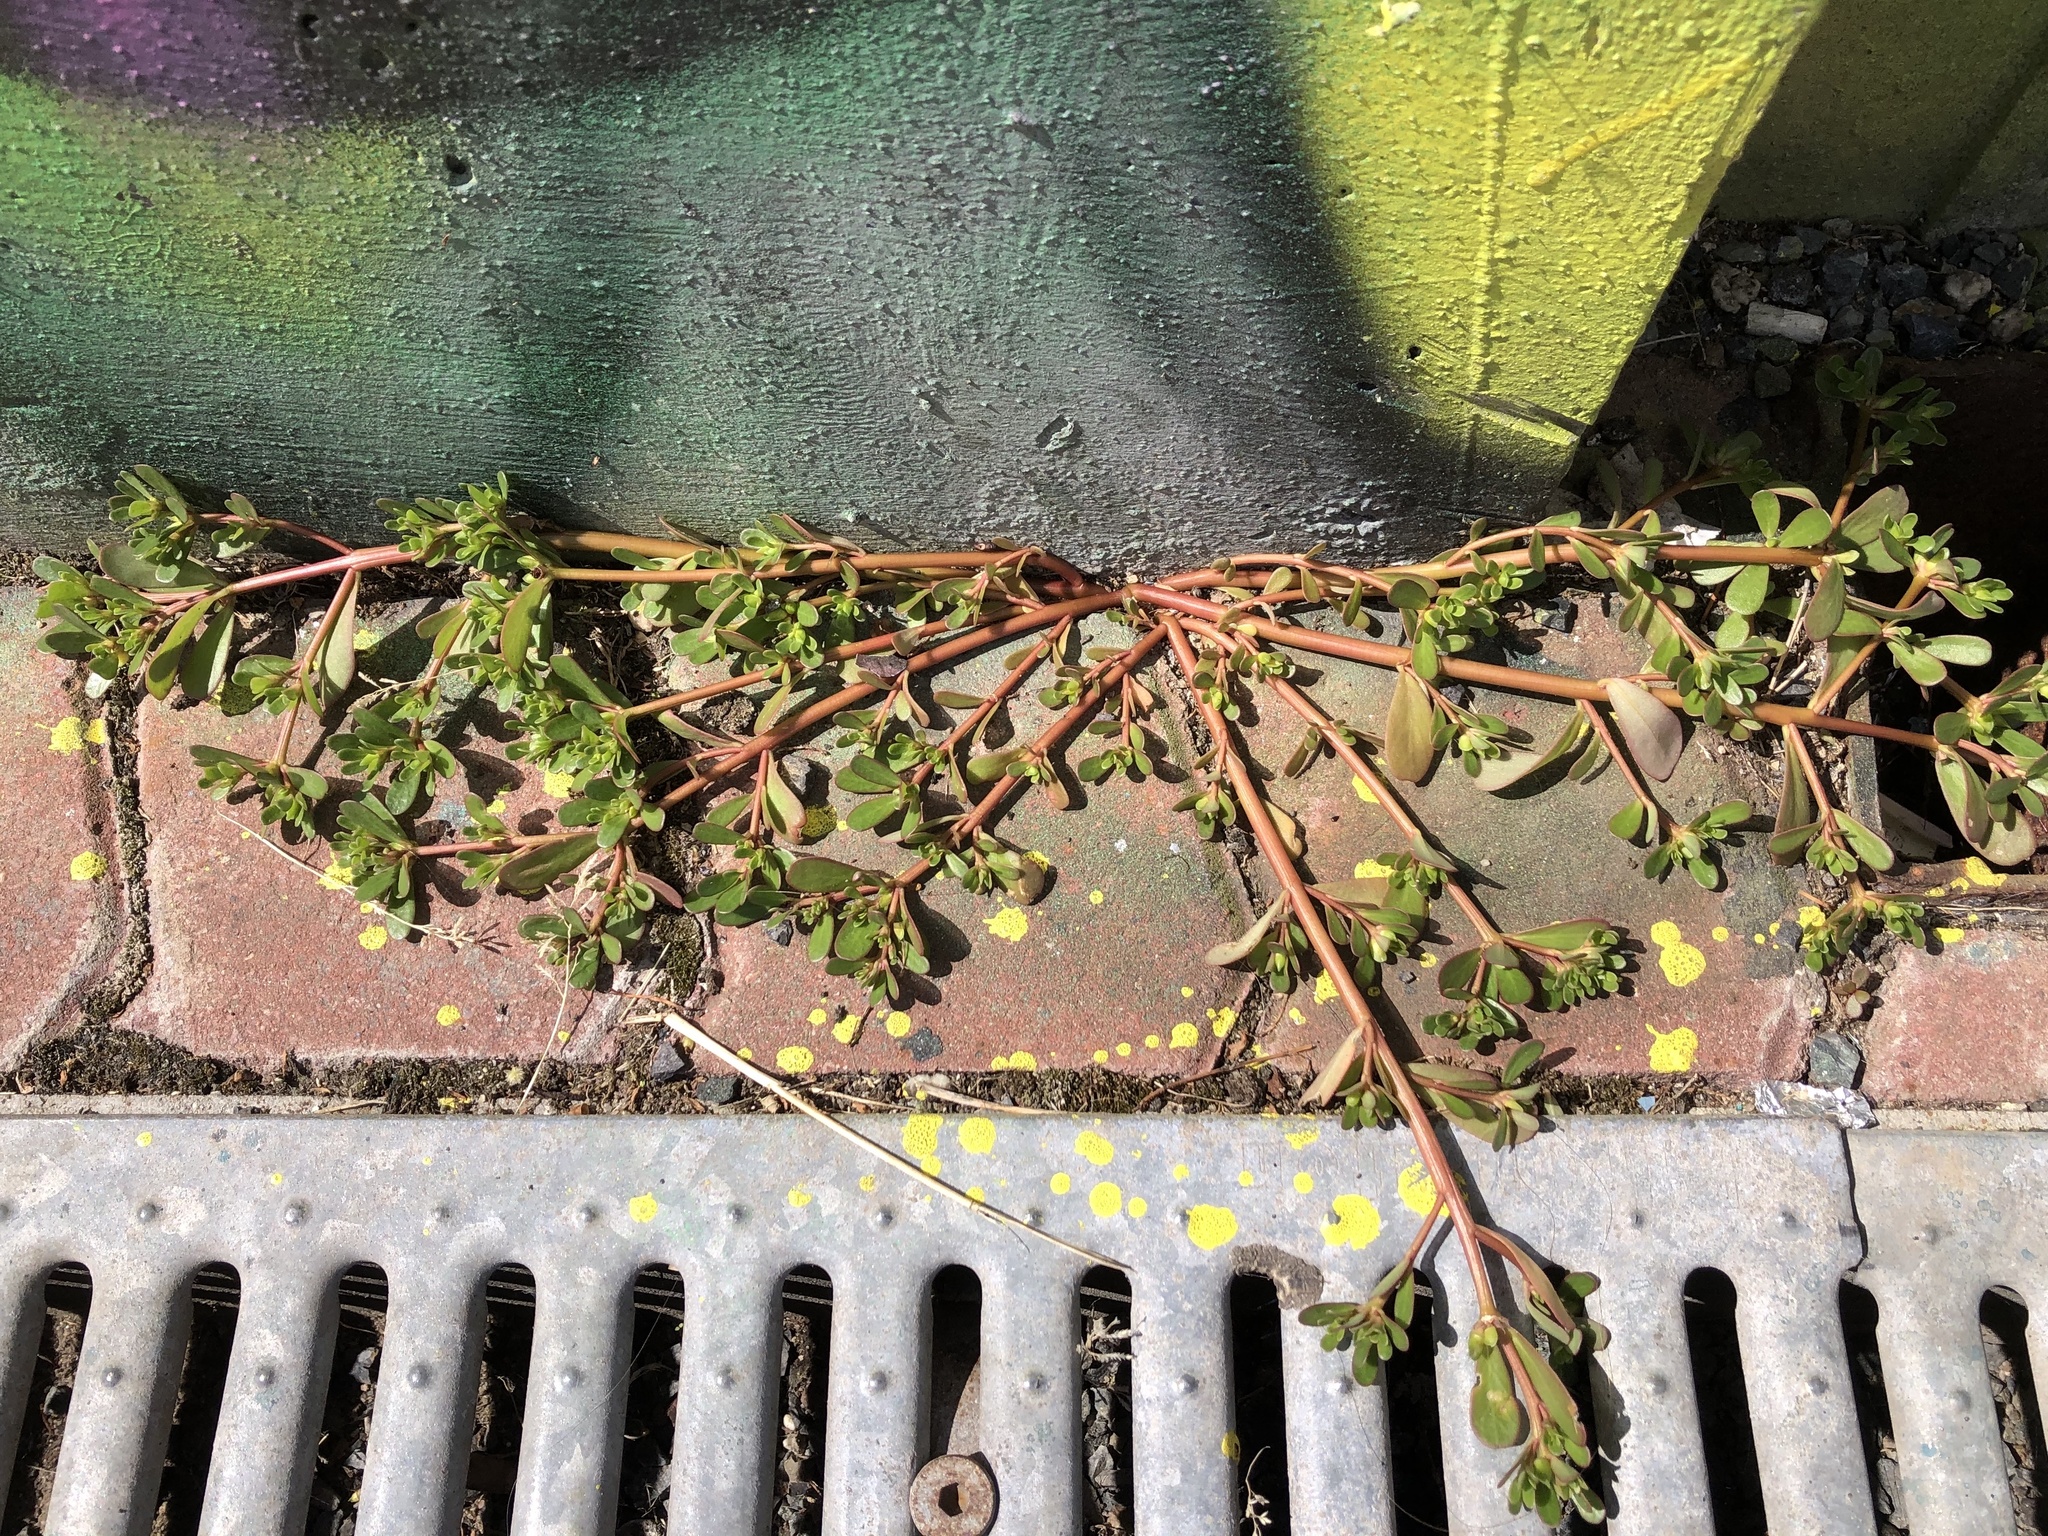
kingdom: Plantae
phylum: Tracheophyta
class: Magnoliopsida
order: Caryophyllales
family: Portulacaceae
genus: Portulaca
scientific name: Portulaca oleracea
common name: Common purslane
